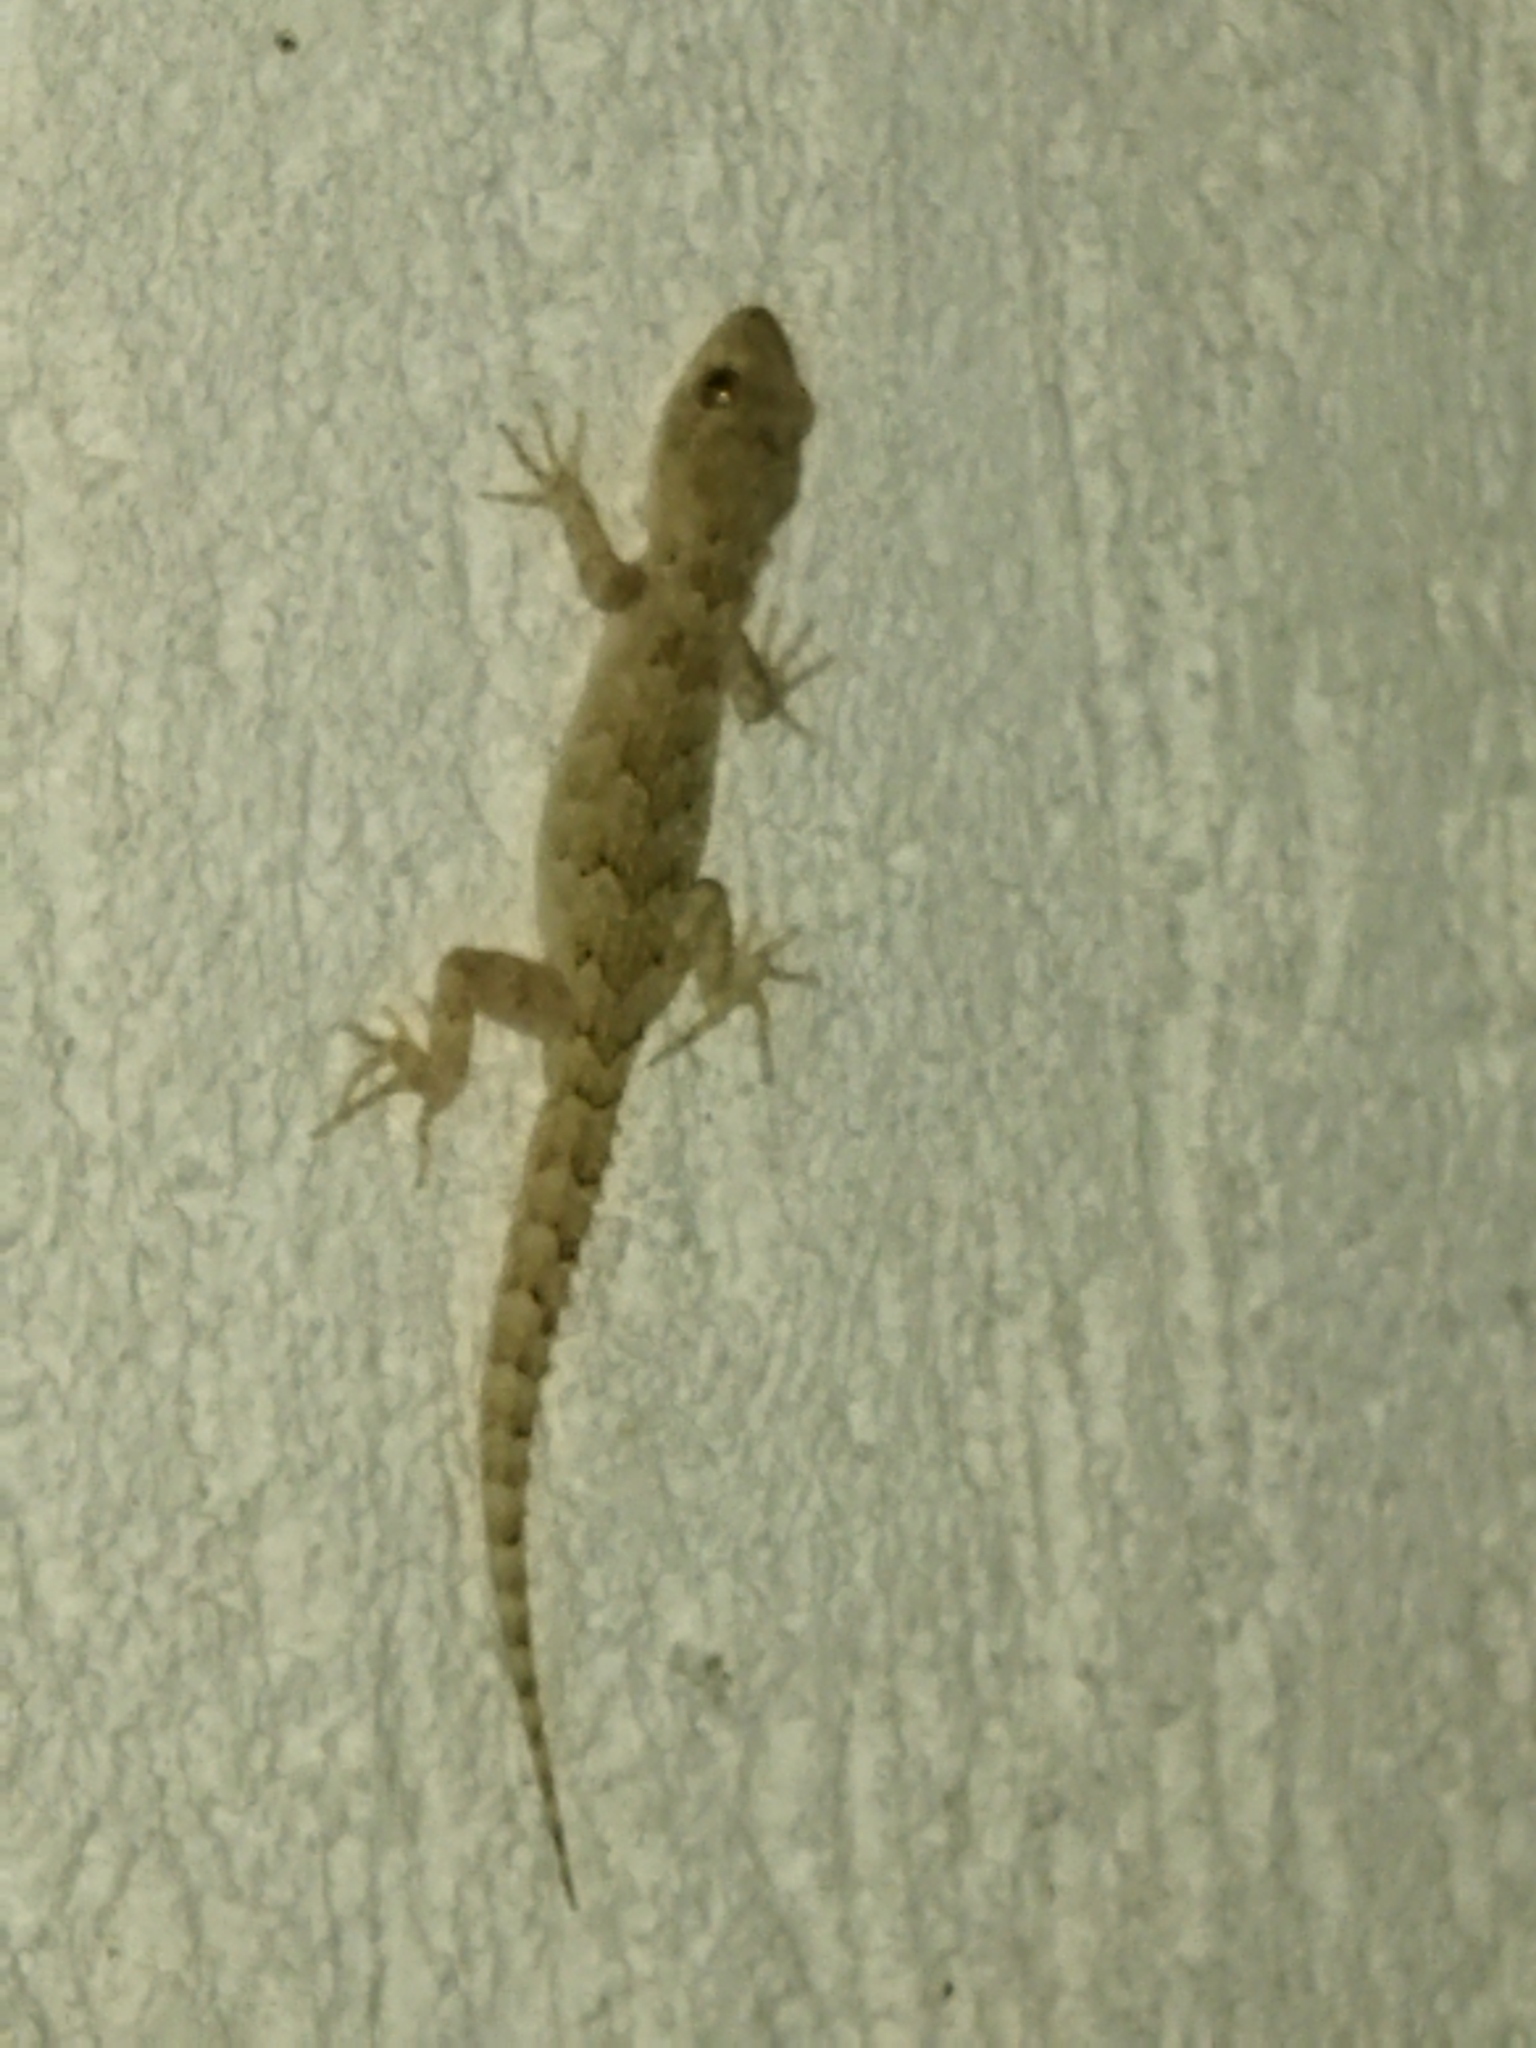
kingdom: Animalia
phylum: Chordata
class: Squamata
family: Gekkonidae
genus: Mediodactylus
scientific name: Mediodactylus kotschyi
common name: Kotschy's gecko
